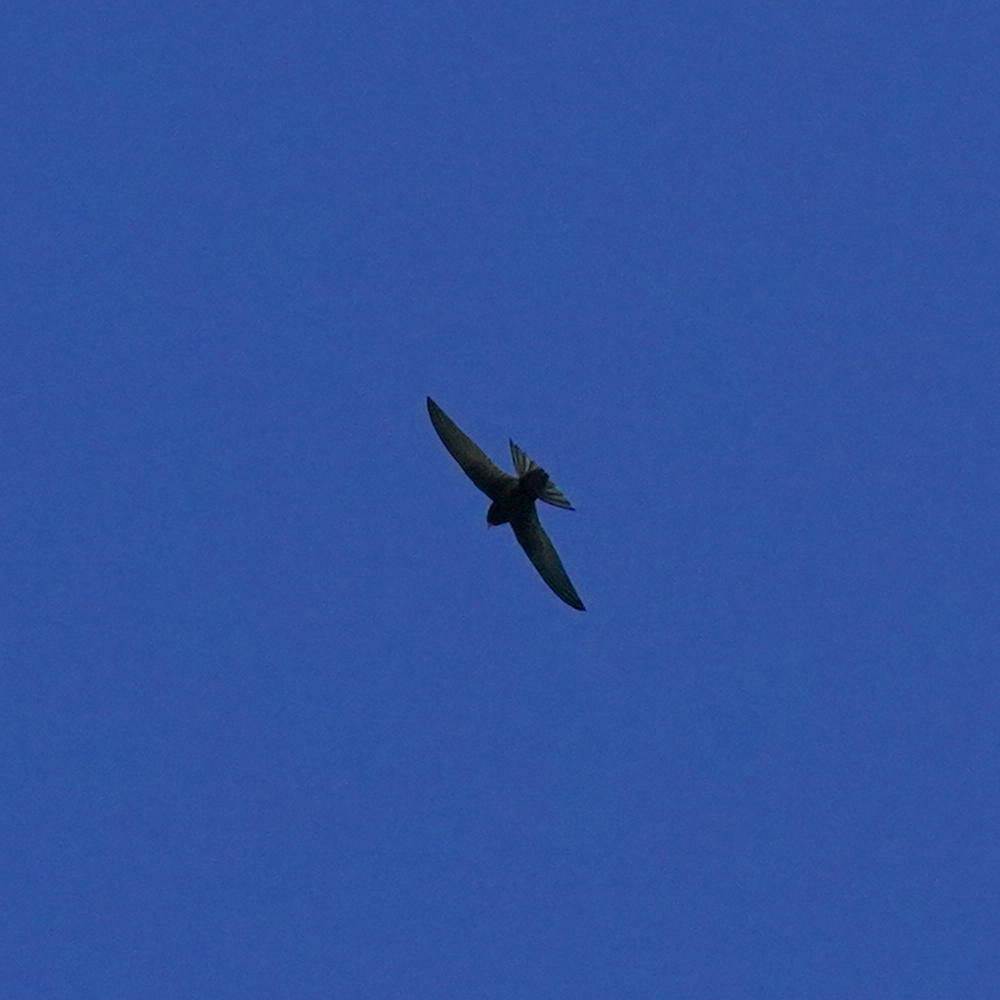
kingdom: Animalia
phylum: Chordata
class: Aves
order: Apodiformes
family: Apodidae
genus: Apus
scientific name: Apus apus
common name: Common swift
